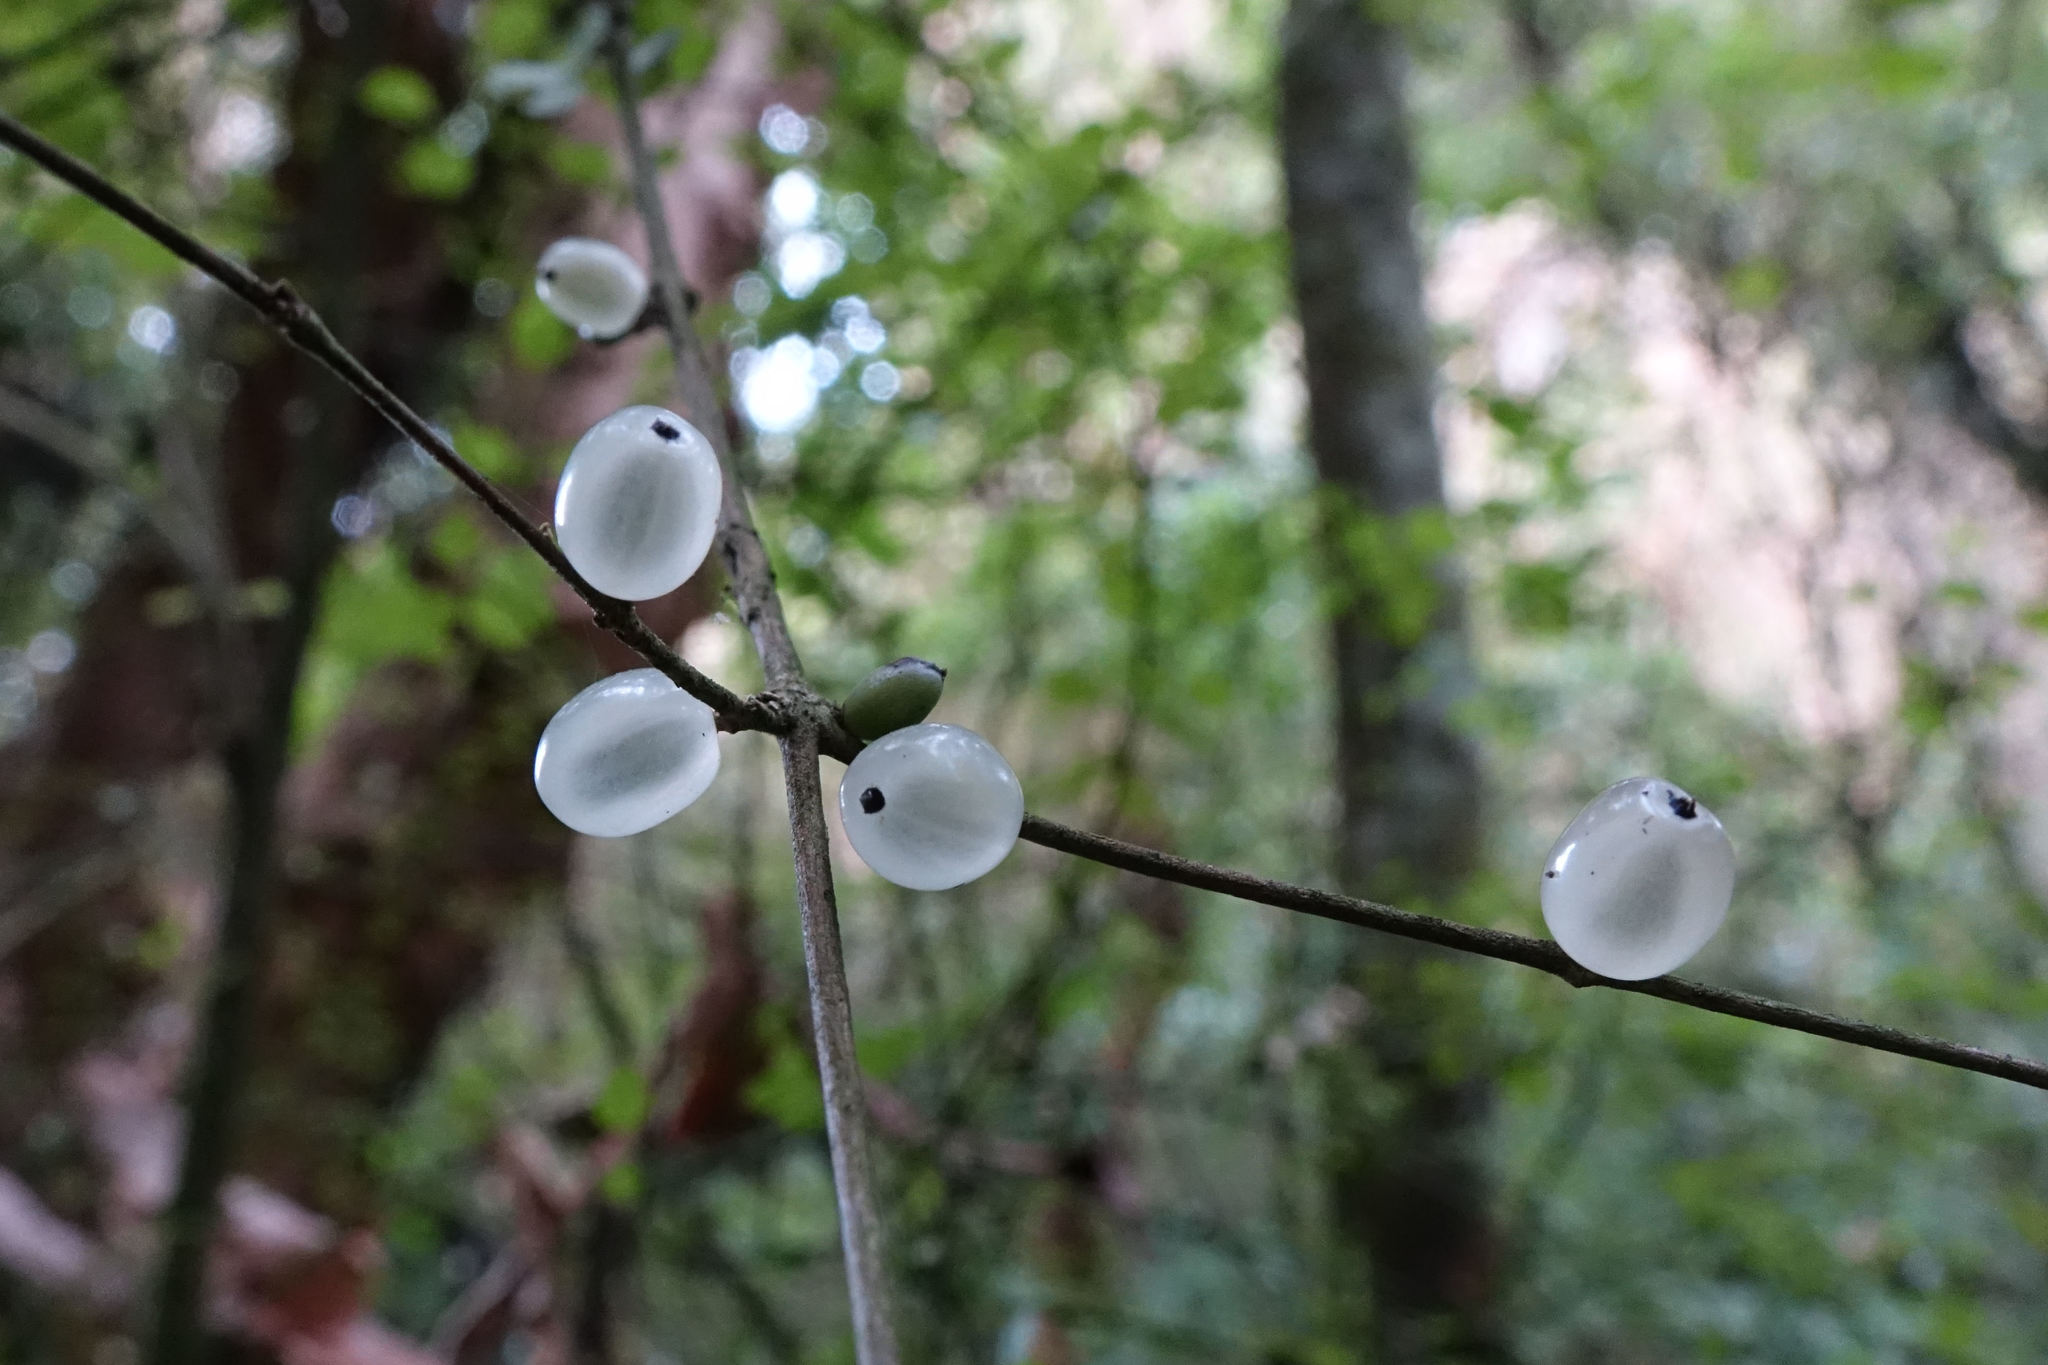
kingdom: Plantae
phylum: Tracheophyta
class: Magnoliopsida
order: Gentianales
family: Rubiaceae
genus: Coprosma
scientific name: Coprosma rubra
